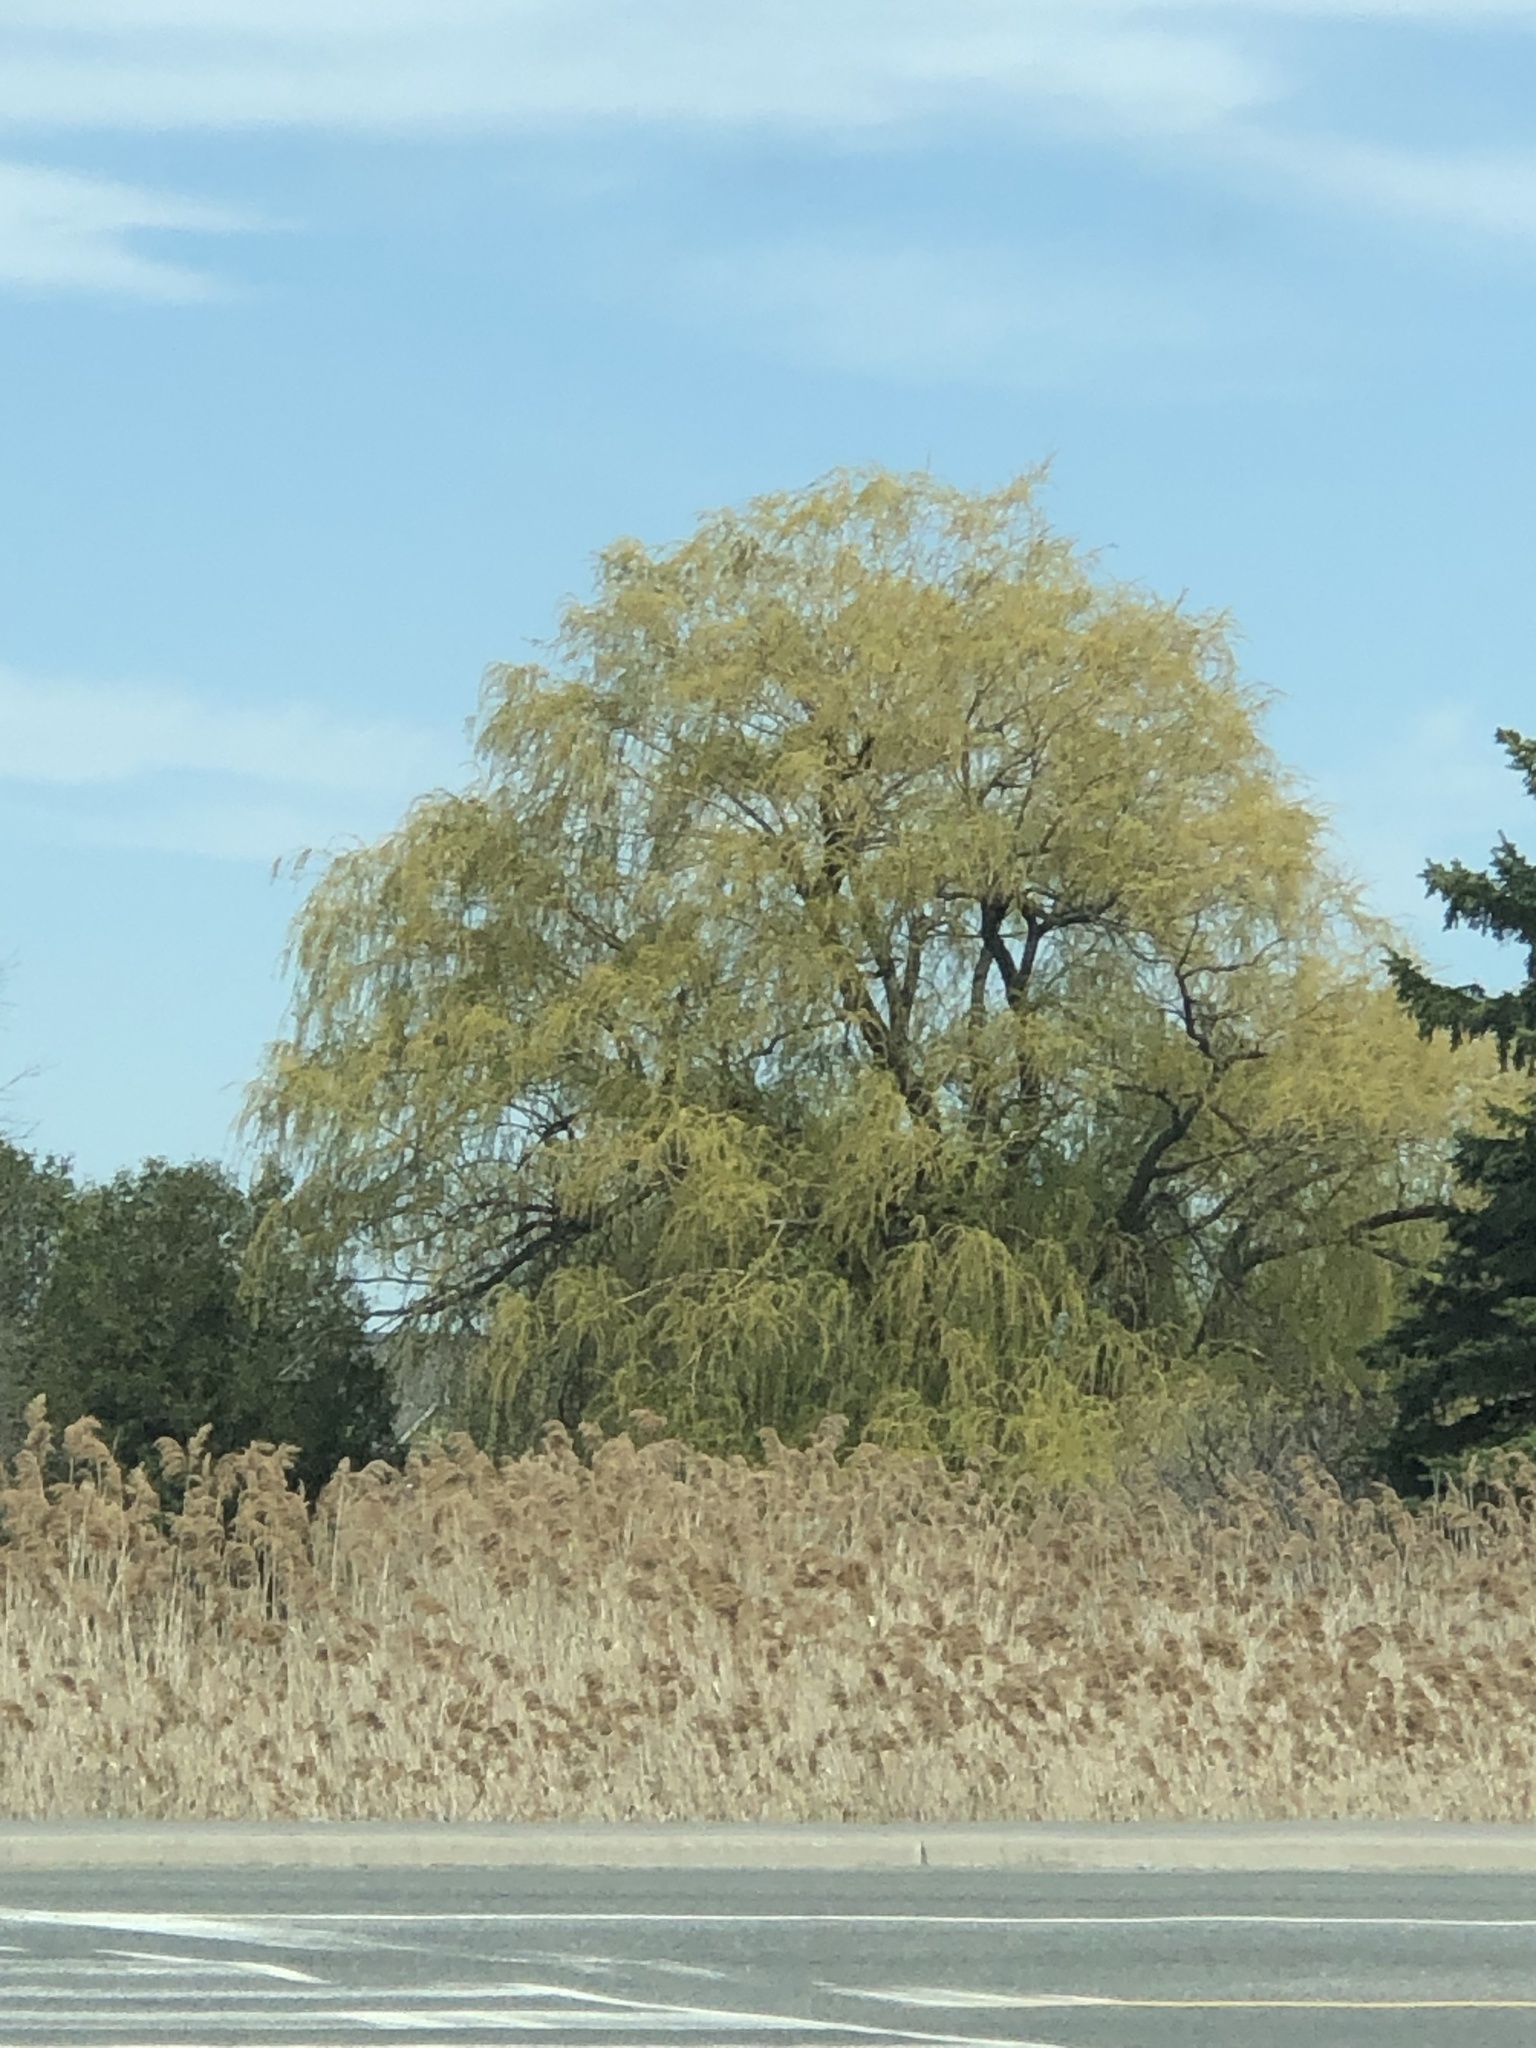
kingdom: Plantae
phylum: Tracheophyta
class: Magnoliopsida
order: Malpighiales
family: Salicaceae
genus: Salix
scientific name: Salix pendulina
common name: Wisconsin weeping willow
